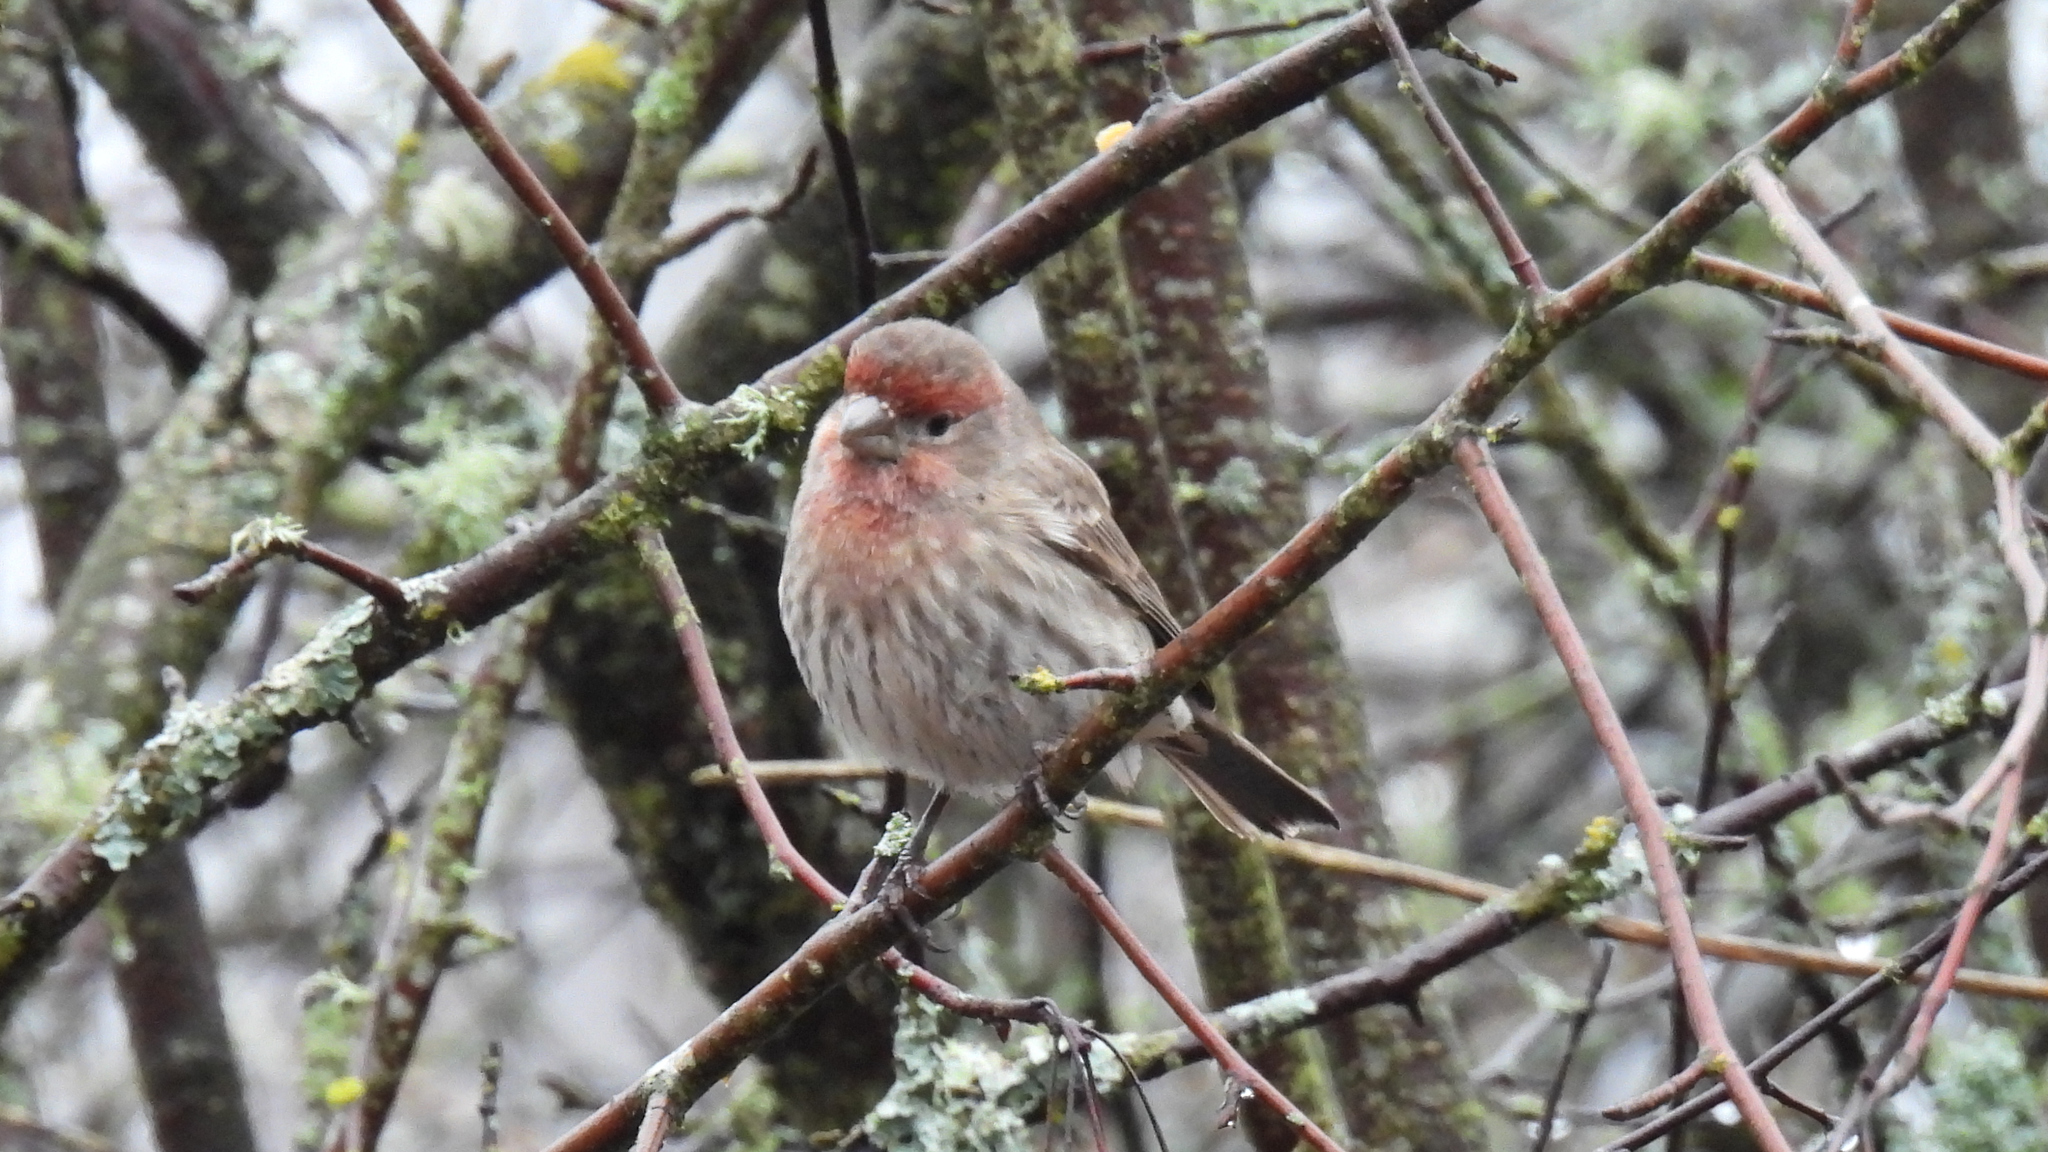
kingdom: Animalia
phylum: Chordata
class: Aves
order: Passeriformes
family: Fringillidae
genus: Haemorhous
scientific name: Haemorhous mexicanus
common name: House finch
